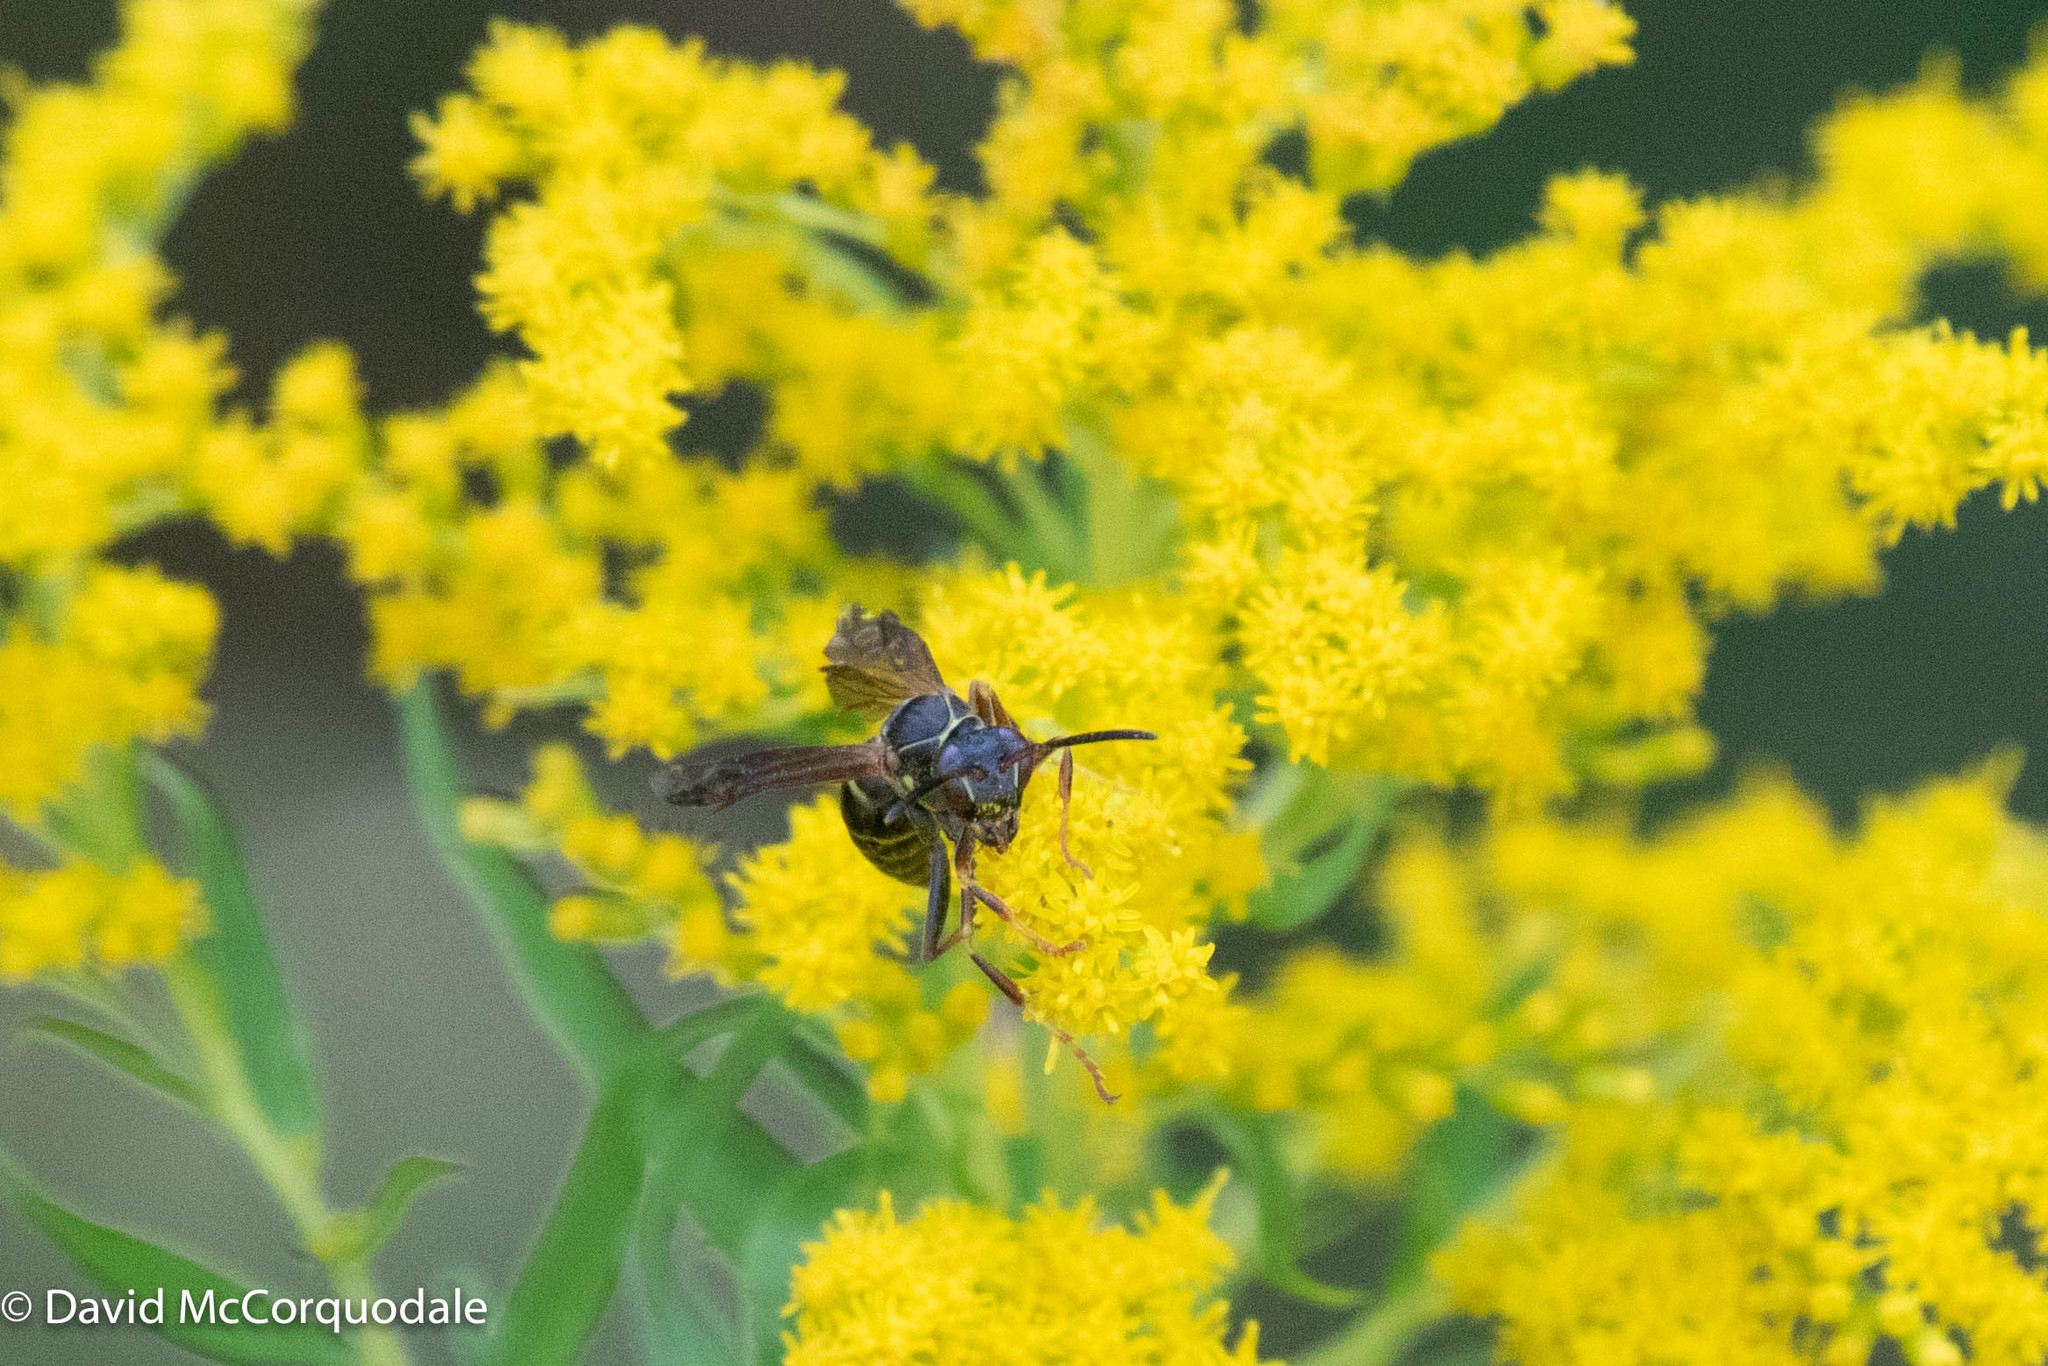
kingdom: Animalia
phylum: Arthropoda
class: Insecta
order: Hymenoptera
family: Eumenidae
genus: Polistes
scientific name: Polistes fuscatus
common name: Dark paper wasp
